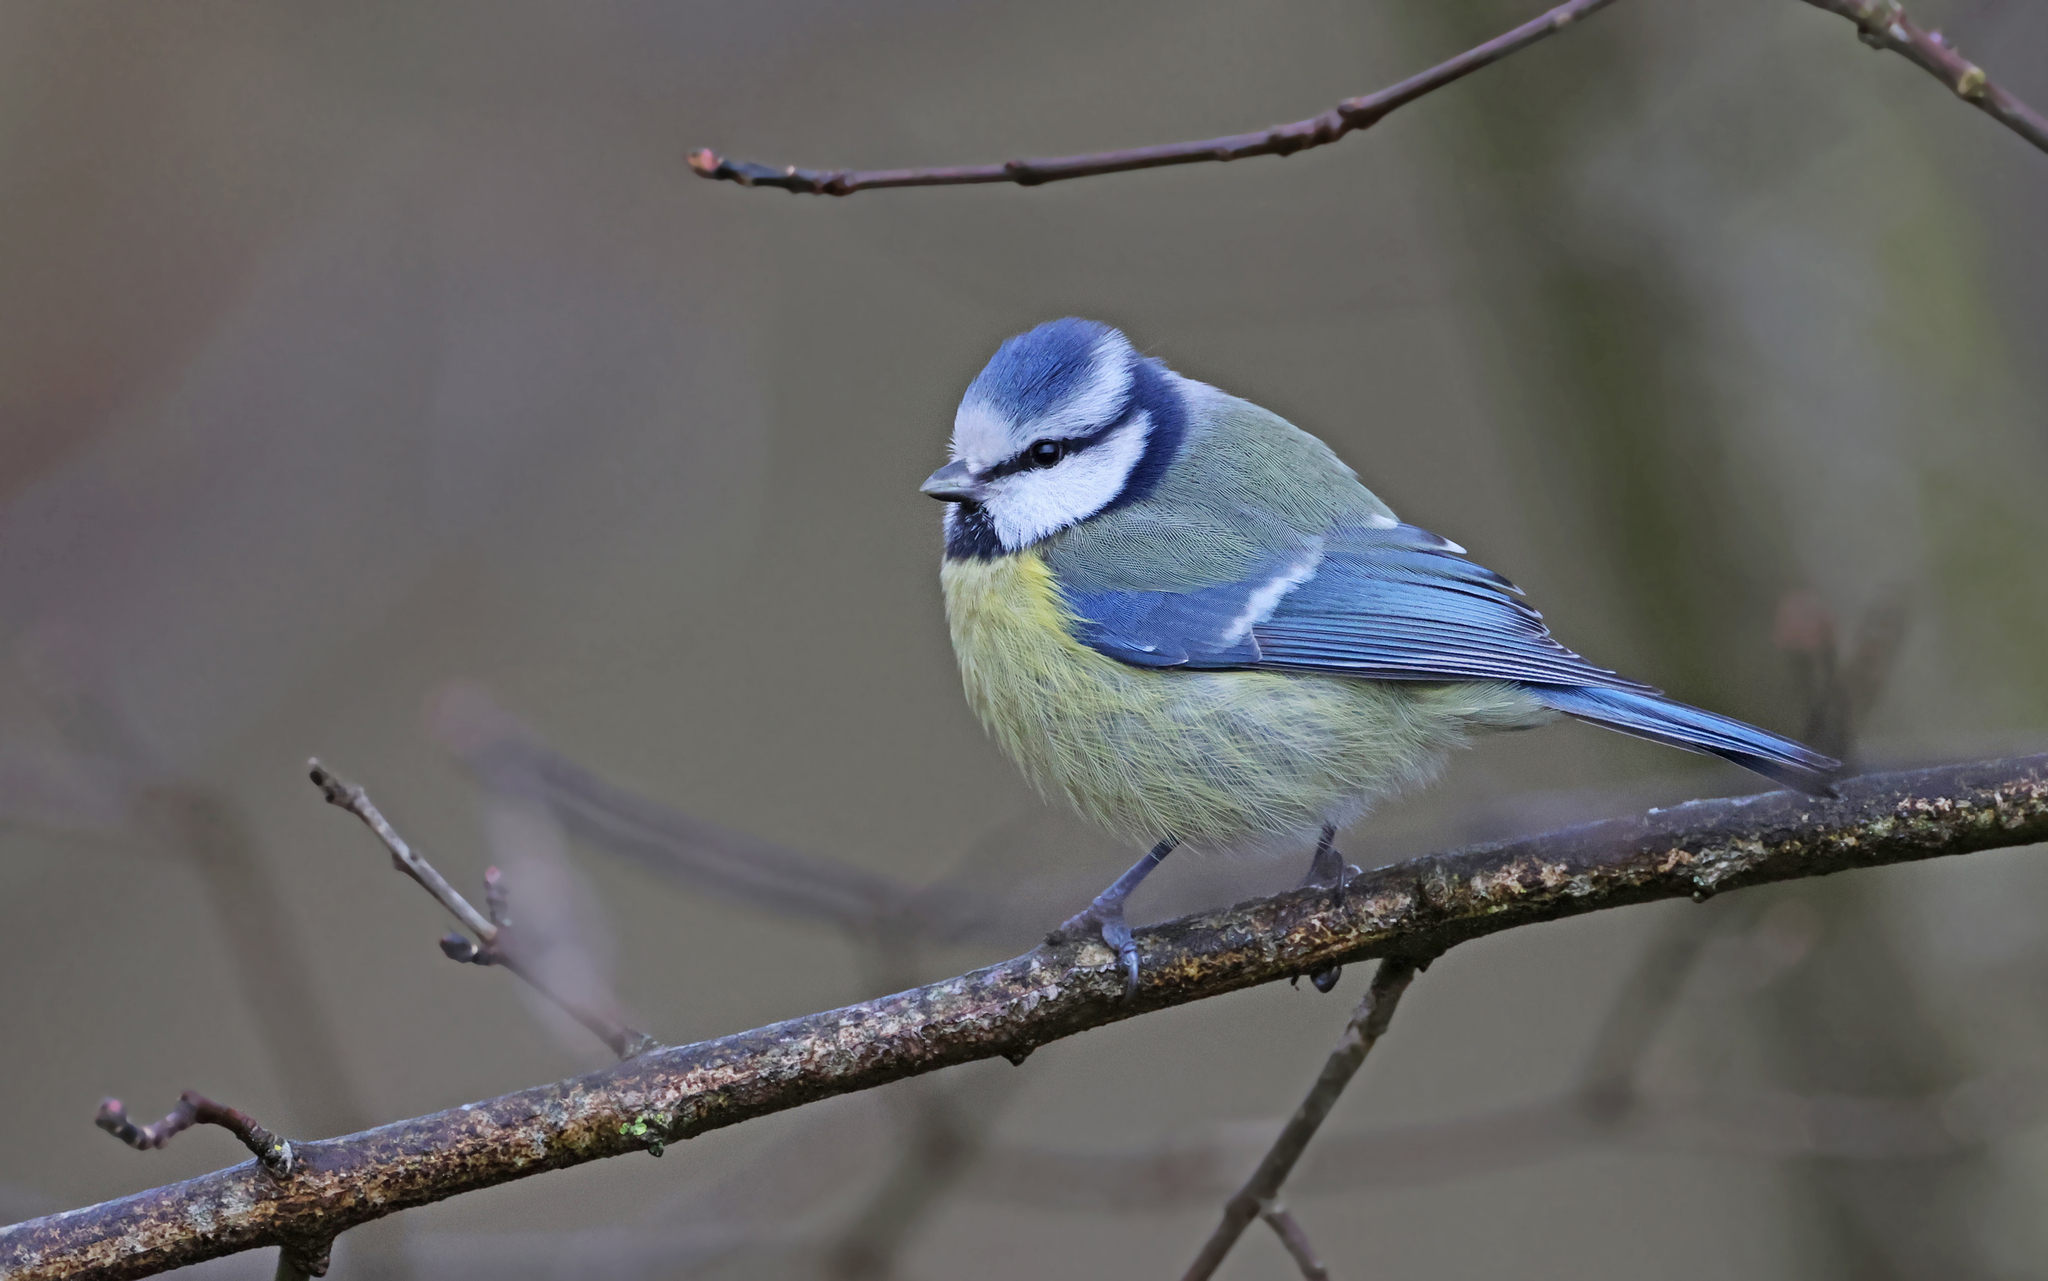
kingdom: Animalia
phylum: Chordata
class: Aves
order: Passeriformes
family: Paridae
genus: Cyanistes
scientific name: Cyanistes caeruleus
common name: Eurasian blue tit
